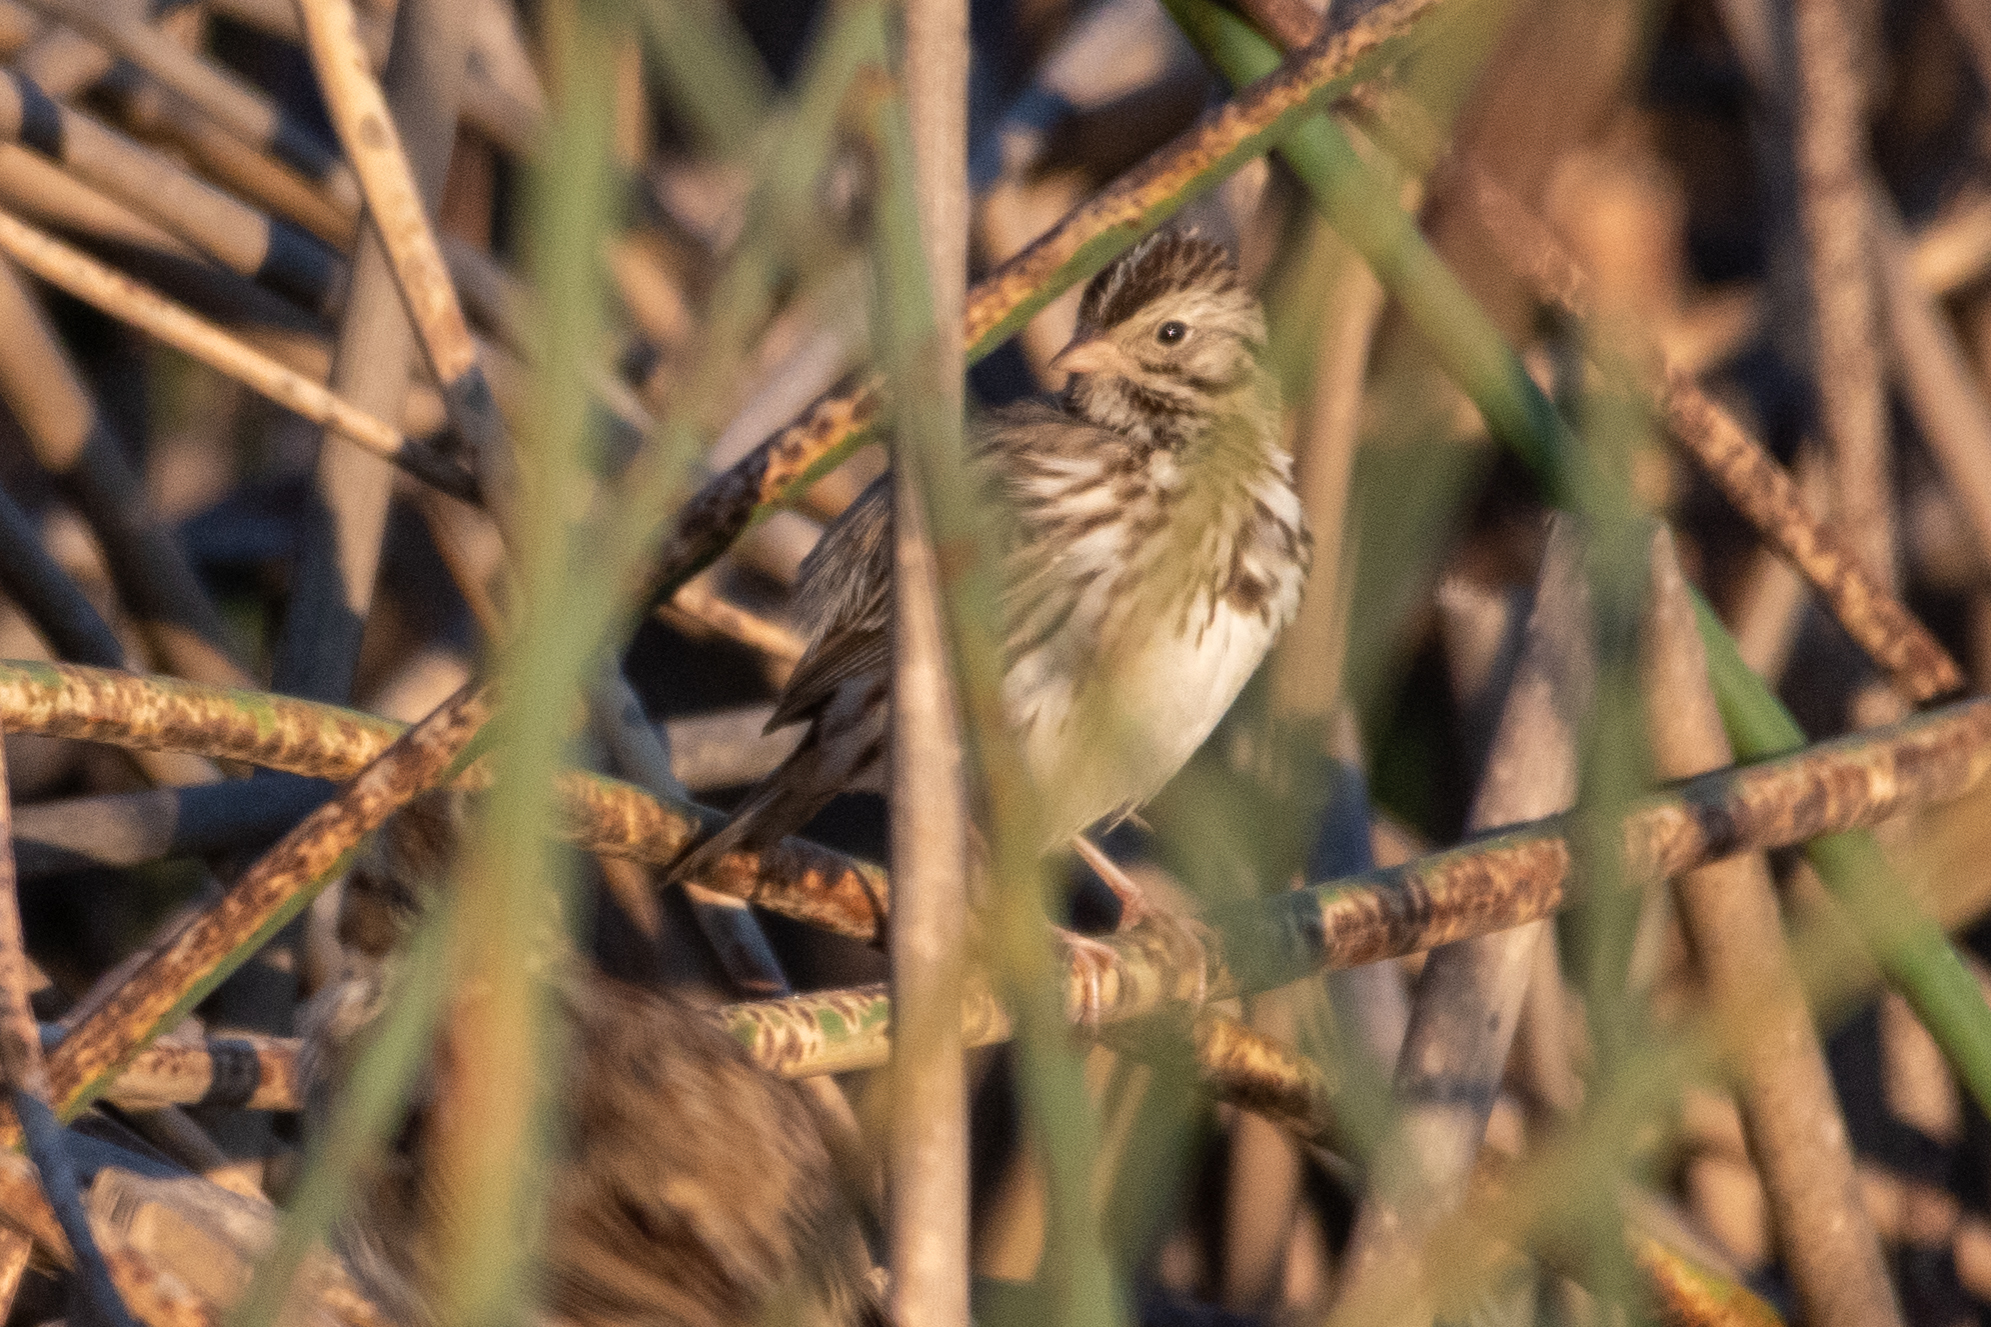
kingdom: Animalia
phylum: Chordata
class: Aves
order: Passeriformes
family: Passerellidae
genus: Passerculus
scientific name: Passerculus sandwichensis
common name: Savannah sparrow
